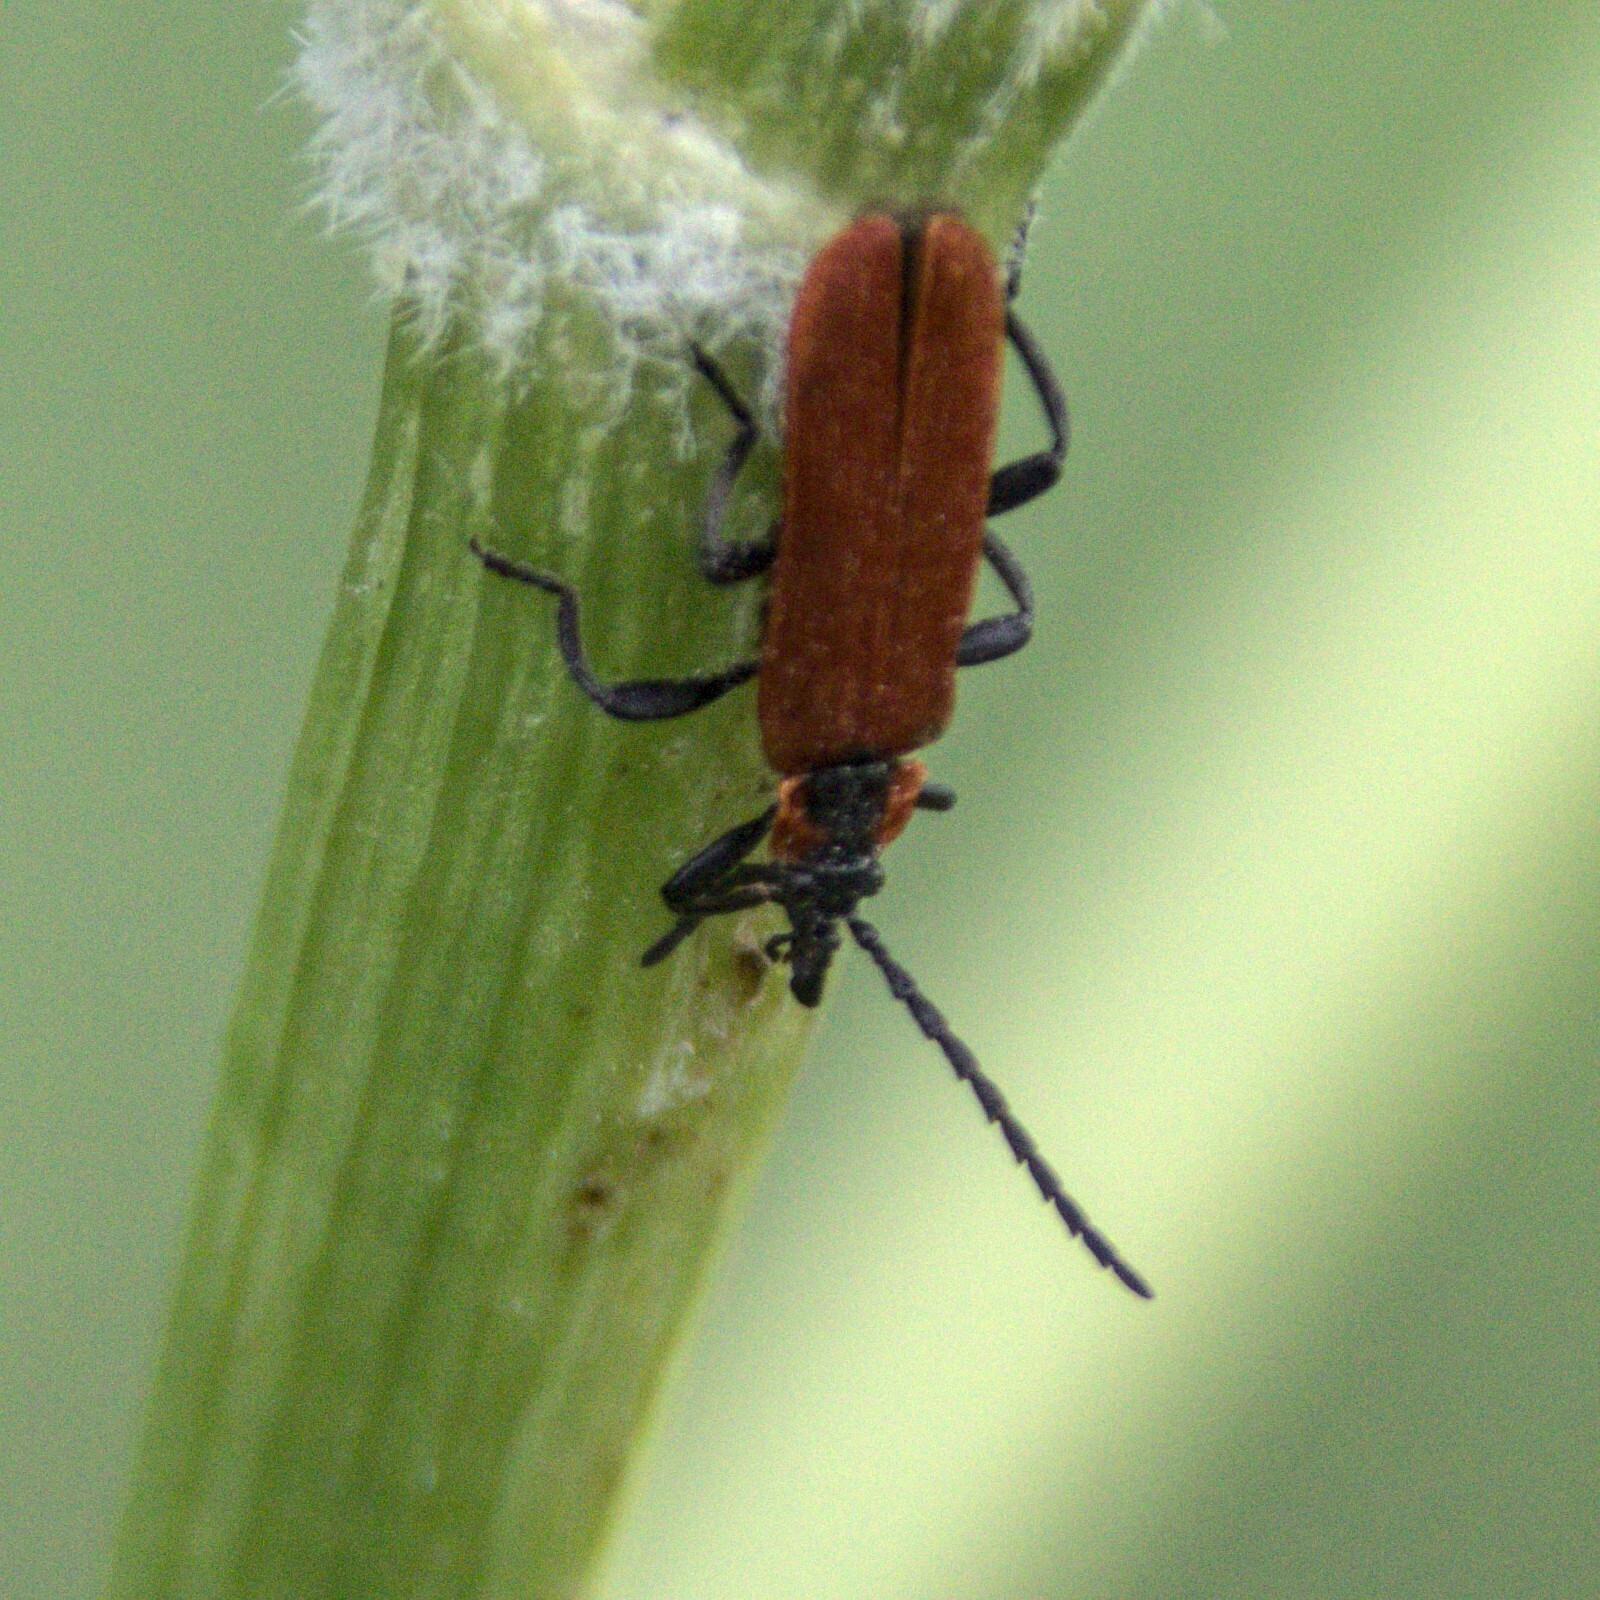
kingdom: Animalia
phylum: Arthropoda
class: Insecta
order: Coleoptera
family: Lycidae
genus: Lygistopterus
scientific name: Lygistopterus sanguineus
